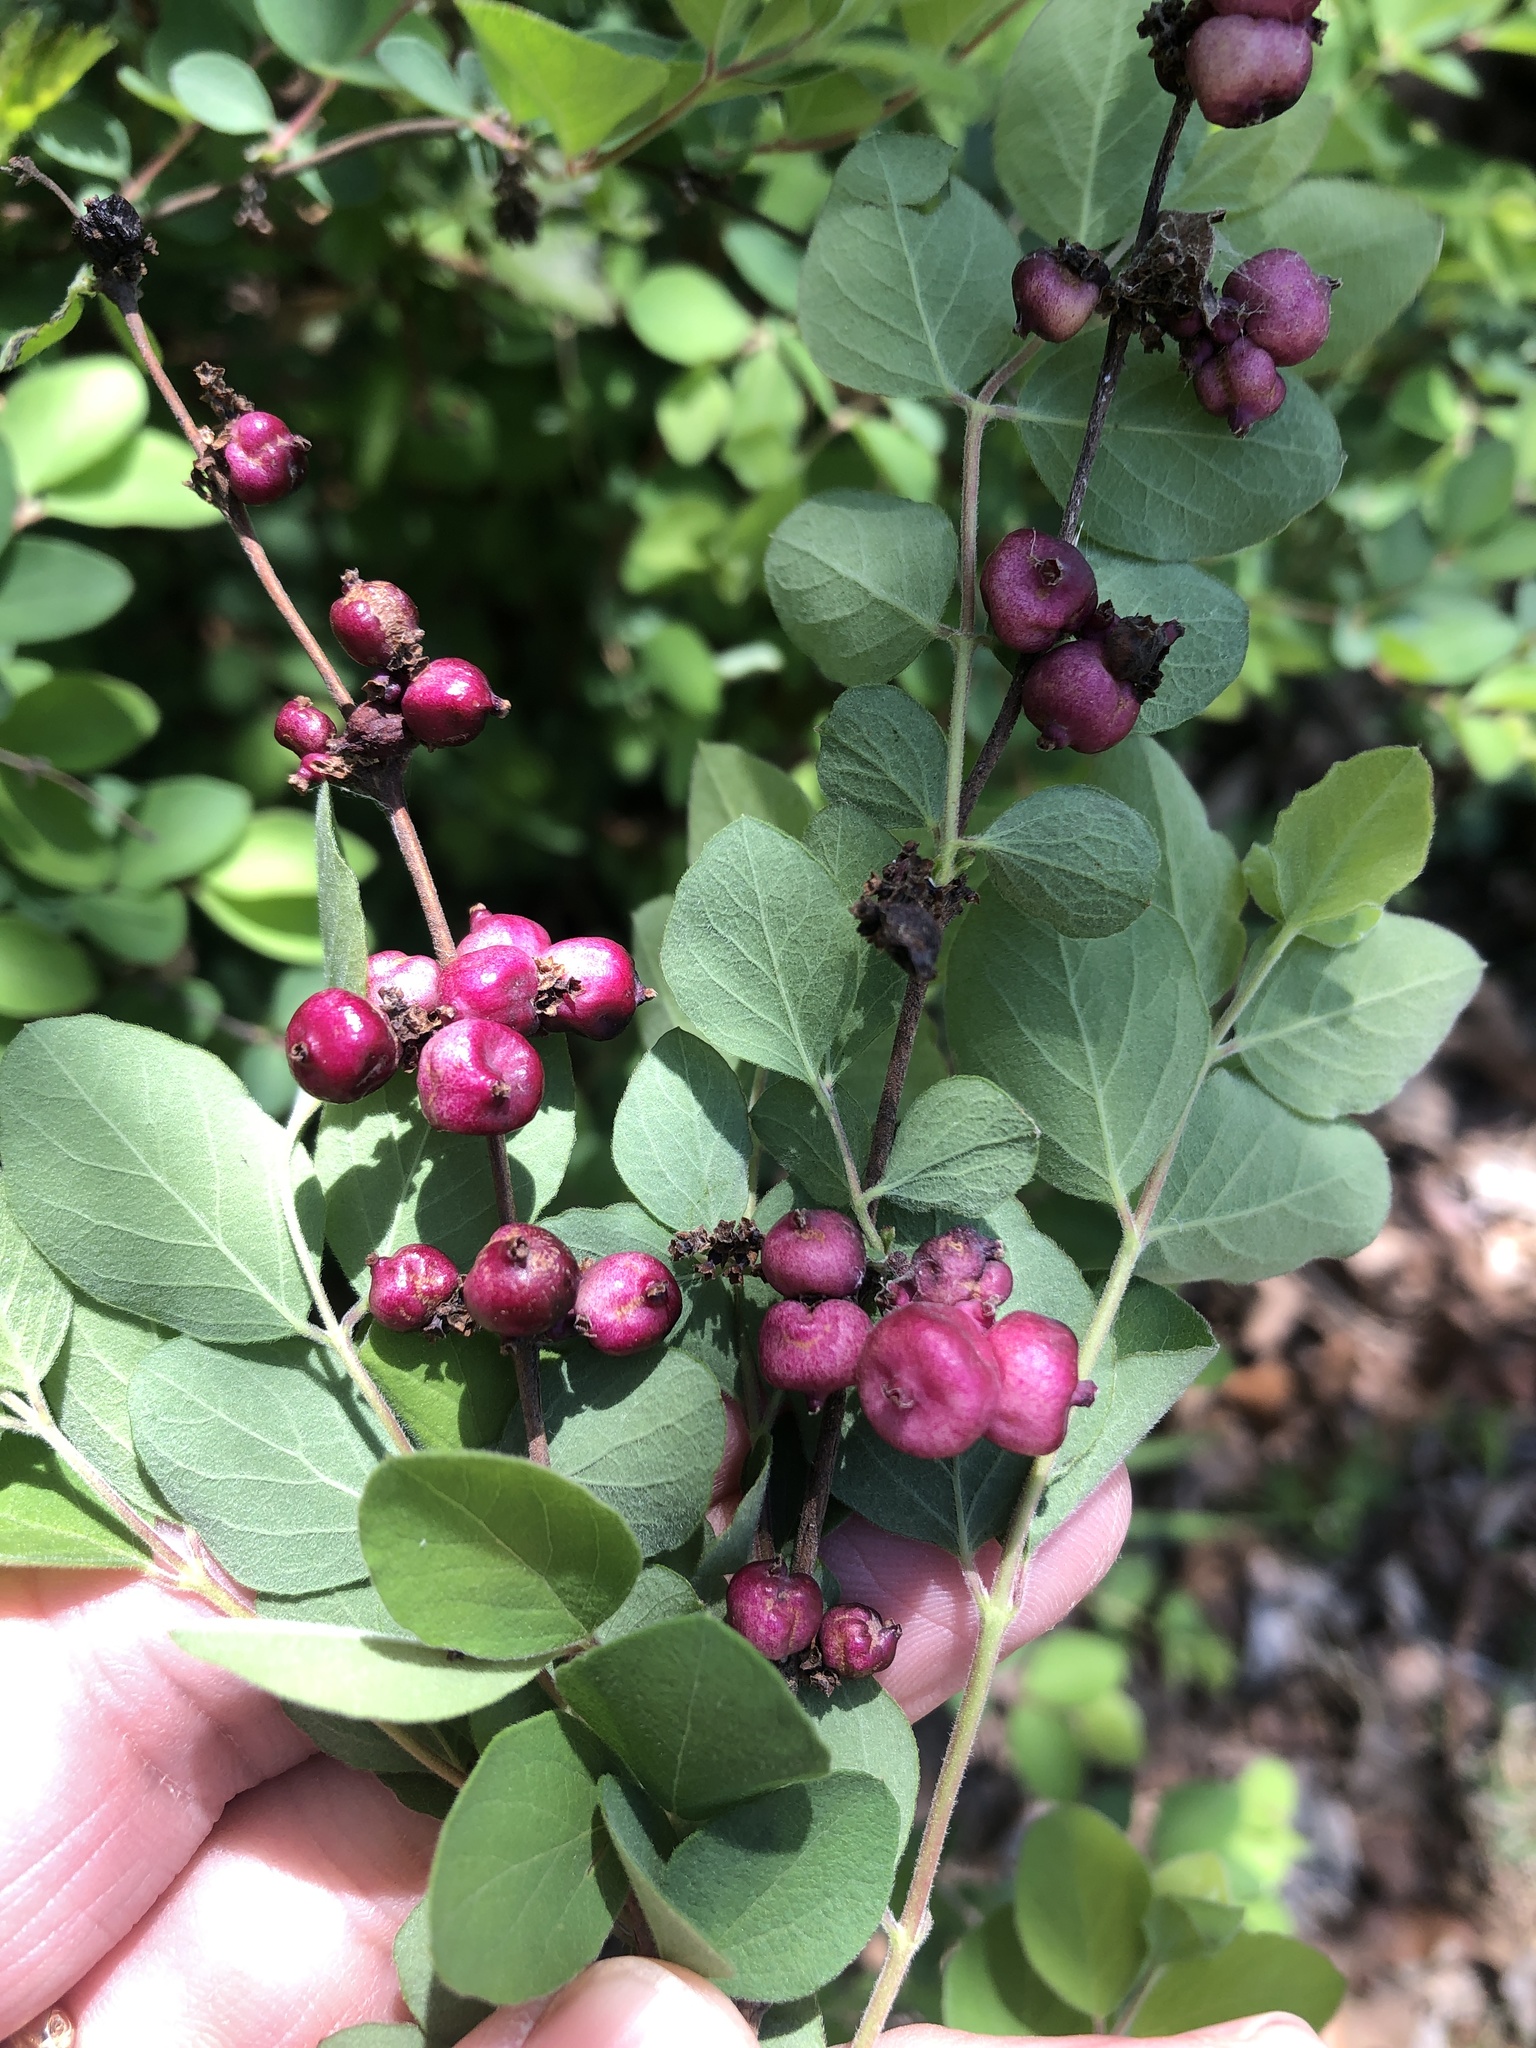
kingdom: Plantae
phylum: Tracheophyta
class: Magnoliopsida
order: Dipsacales
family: Caprifoliaceae
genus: Symphoricarpos
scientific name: Symphoricarpos orbiculatus
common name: Coralberry
